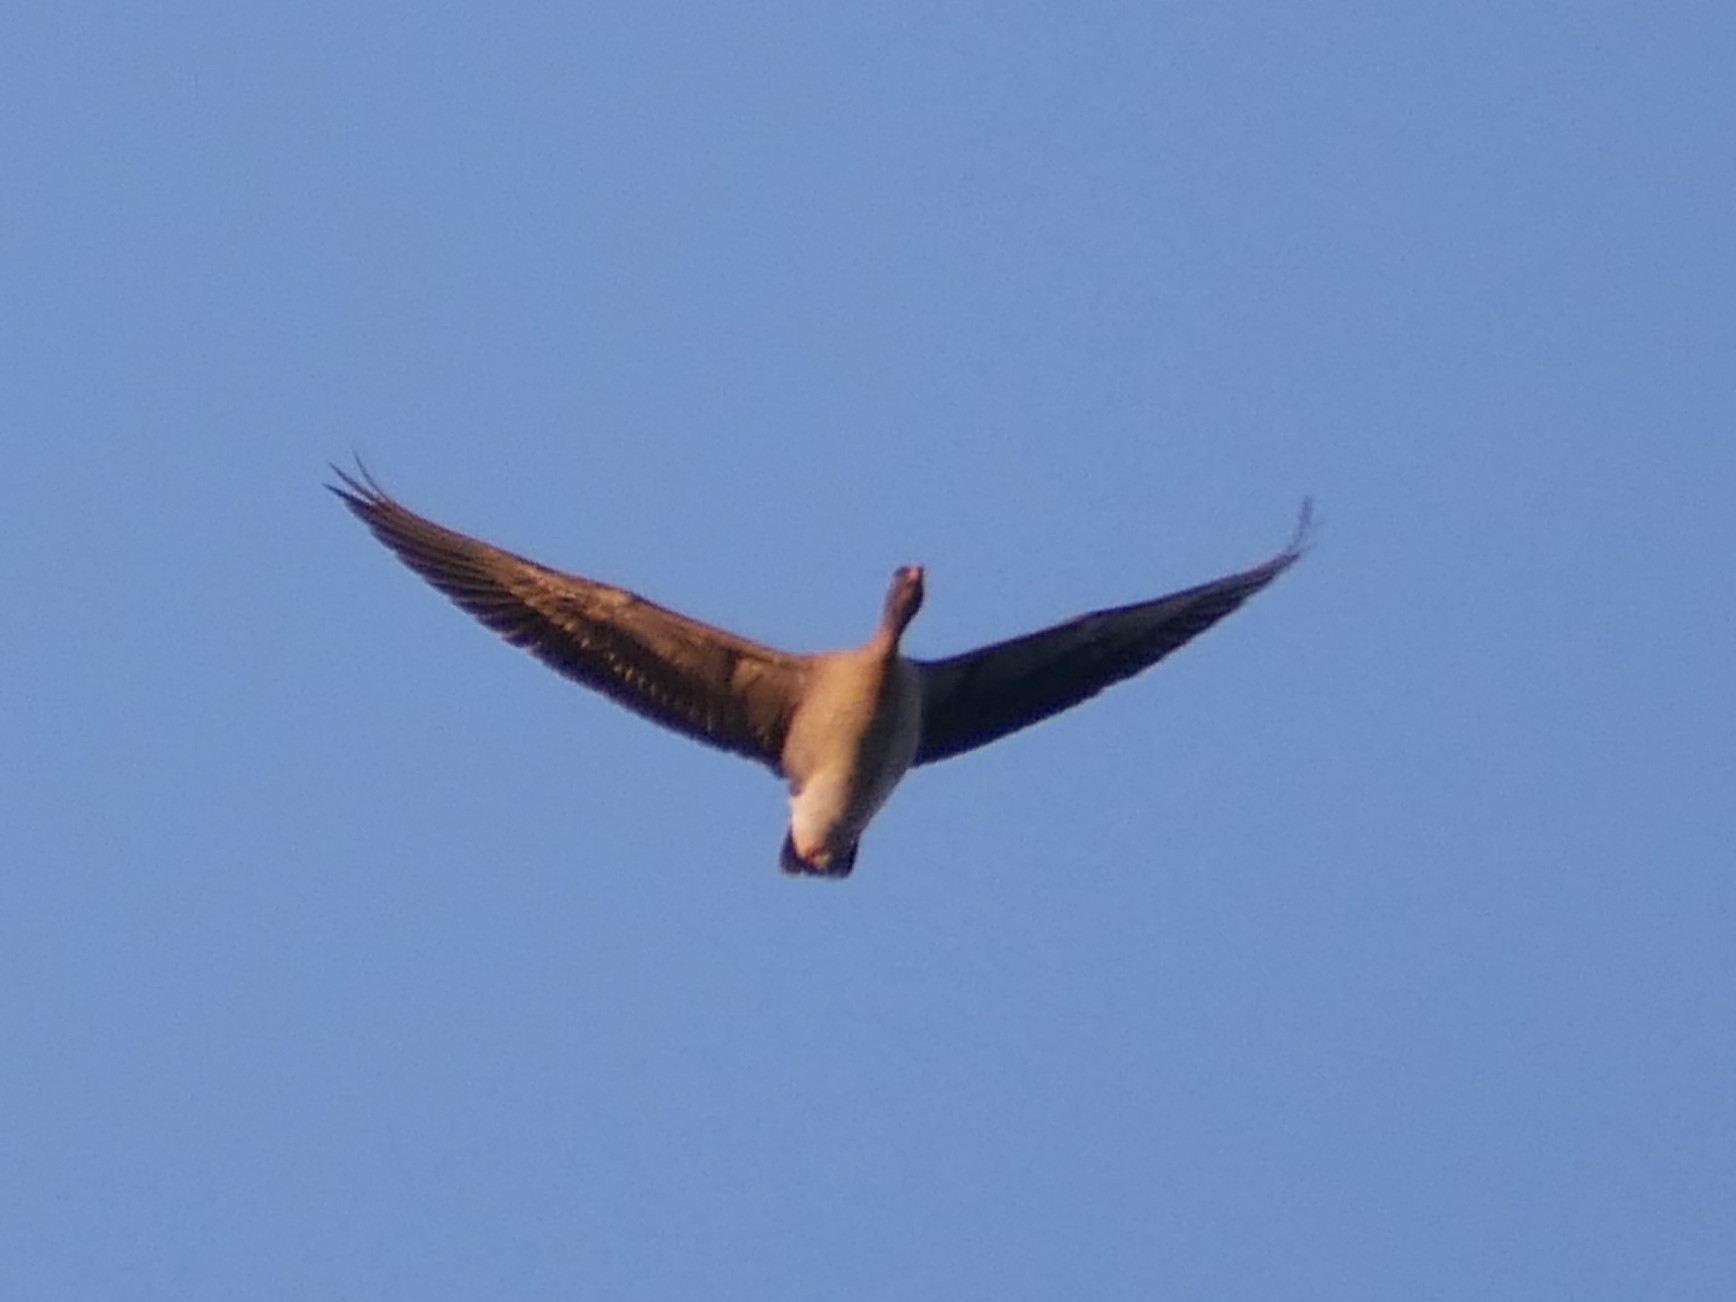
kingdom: Animalia
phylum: Chordata
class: Aves
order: Anseriformes
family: Anatidae
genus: Anser
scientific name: Anser serrirostris
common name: Tundra bean goose
